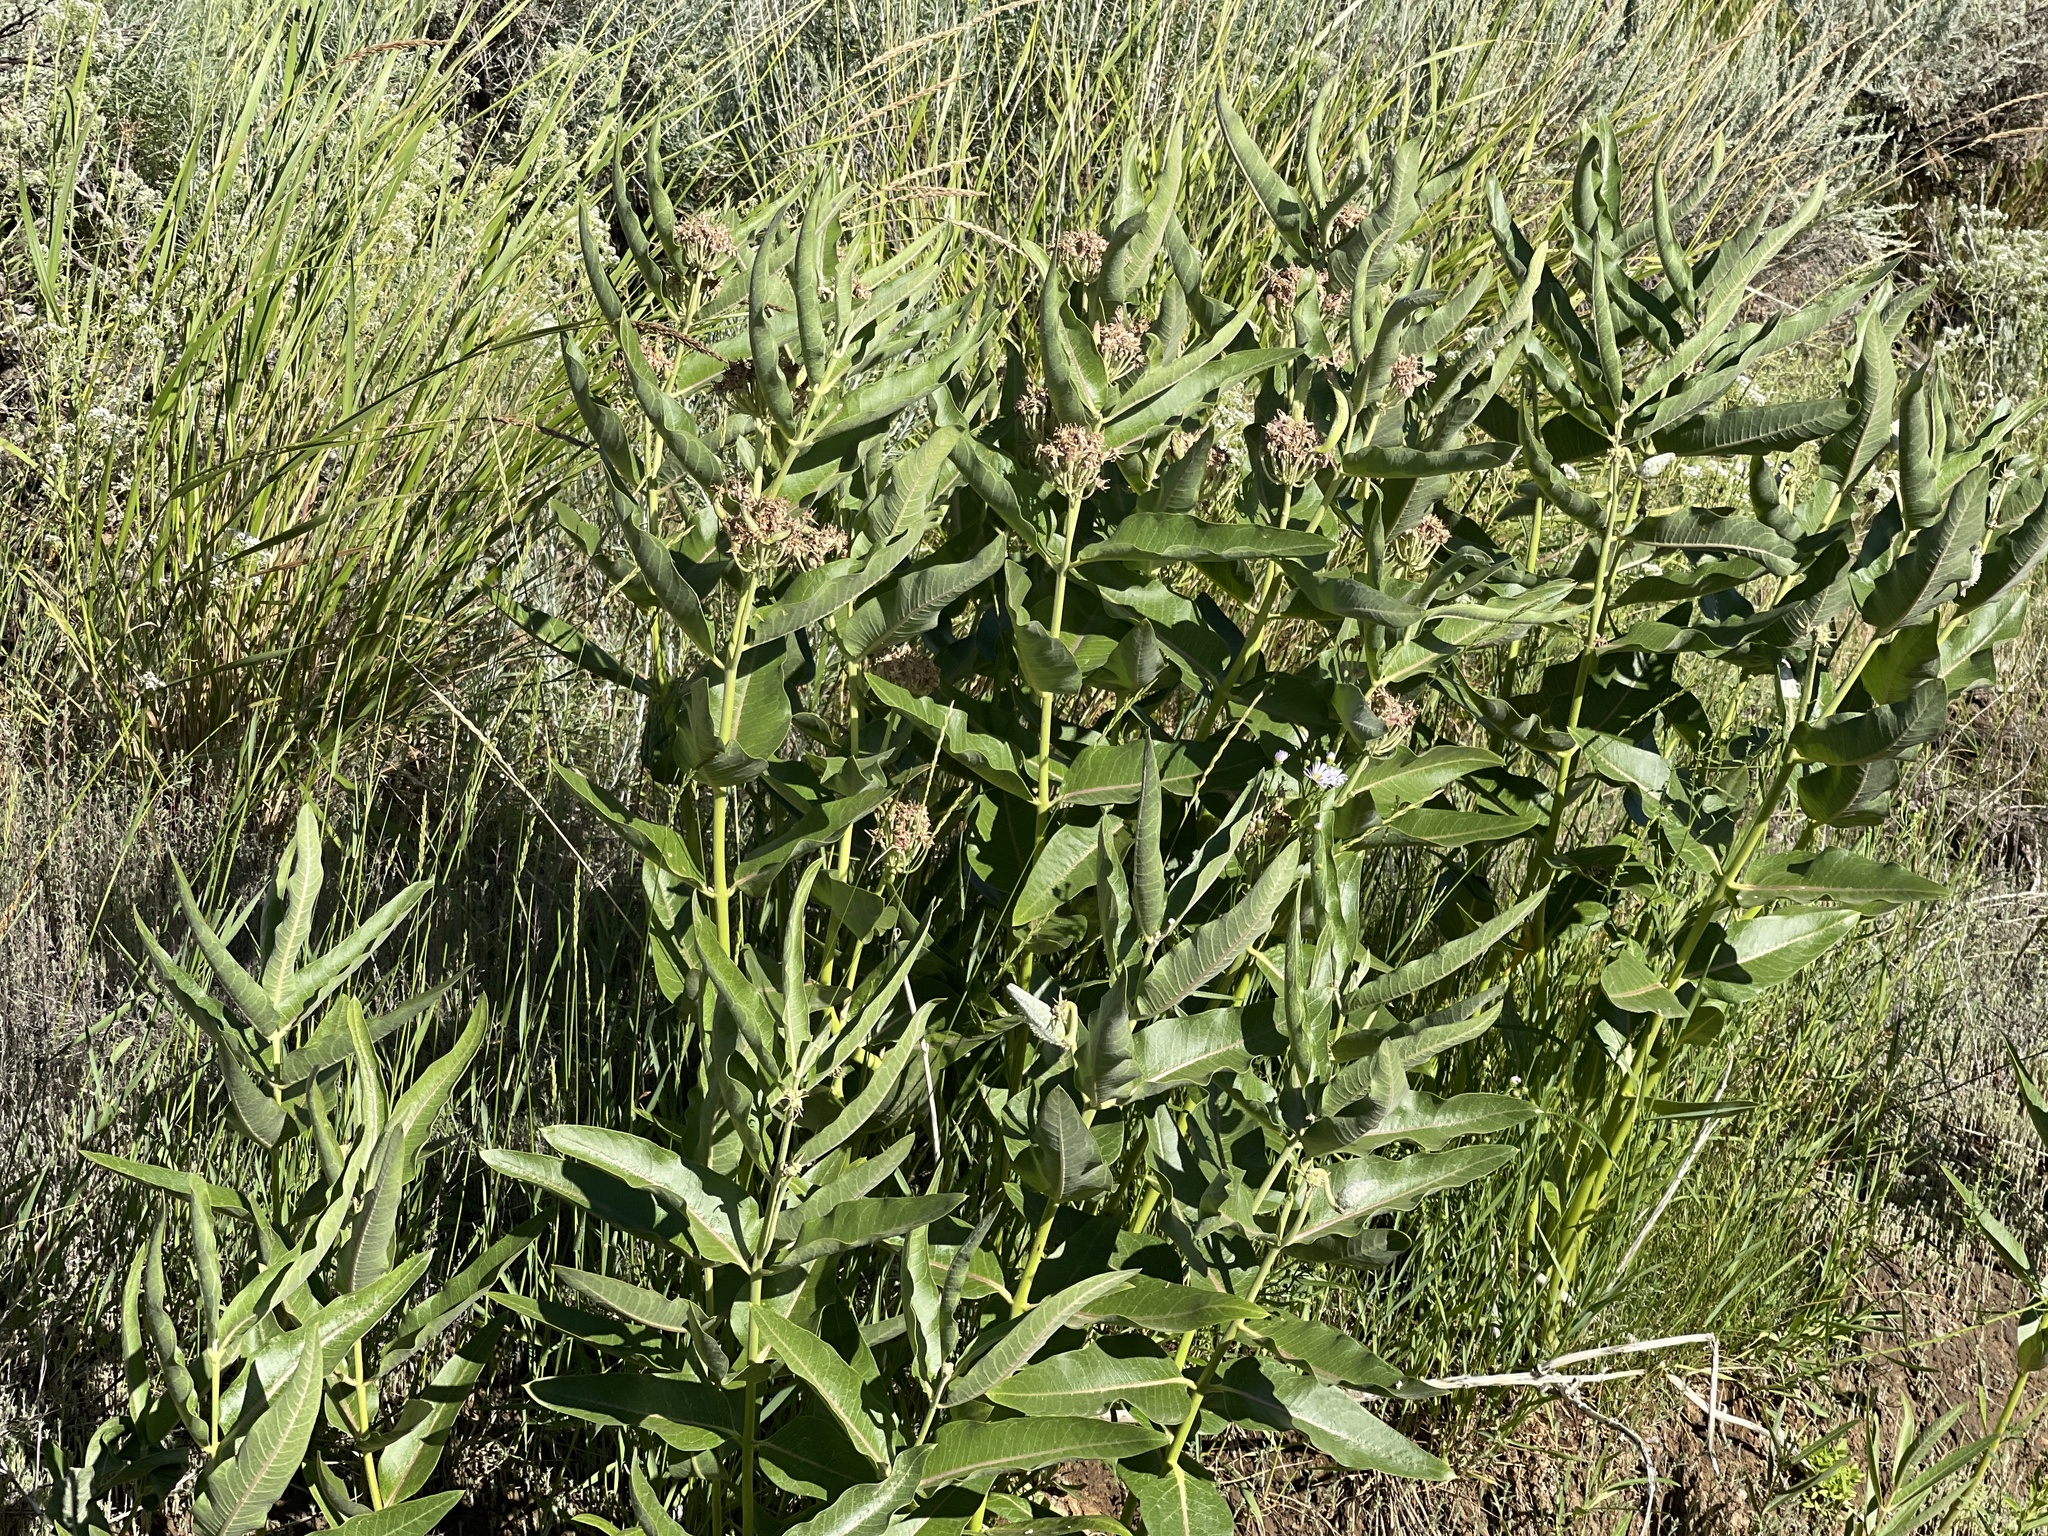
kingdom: Plantae
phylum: Tracheophyta
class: Magnoliopsida
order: Gentianales
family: Apocynaceae
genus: Asclepias
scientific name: Asclepias speciosa
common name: Showy milkweed
